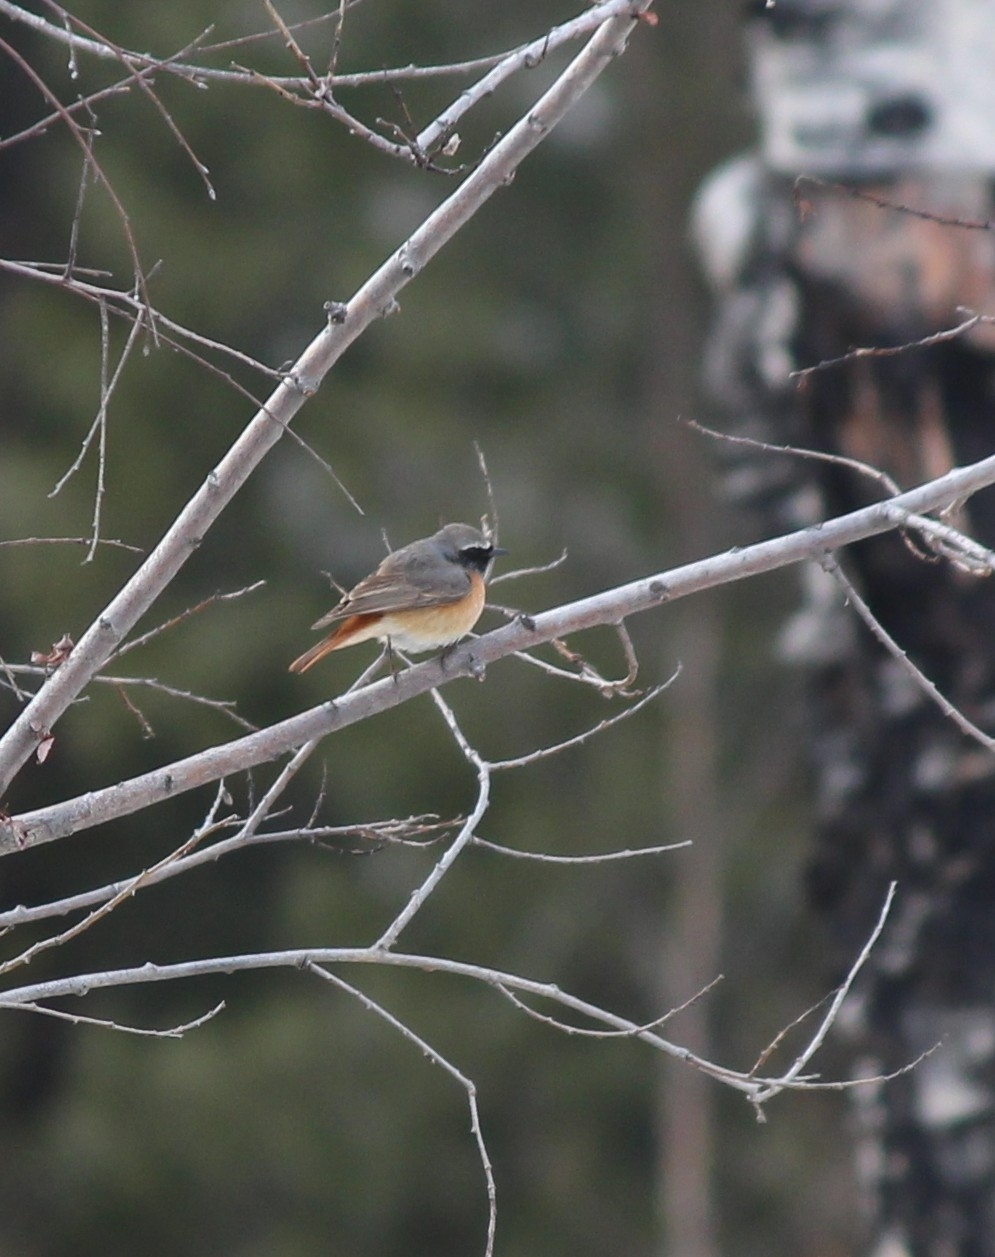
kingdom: Animalia
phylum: Chordata
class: Aves
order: Passeriformes
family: Muscicapidae
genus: Phoenicurus
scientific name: Phoenicurus phoenicurus
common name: Common redstart
